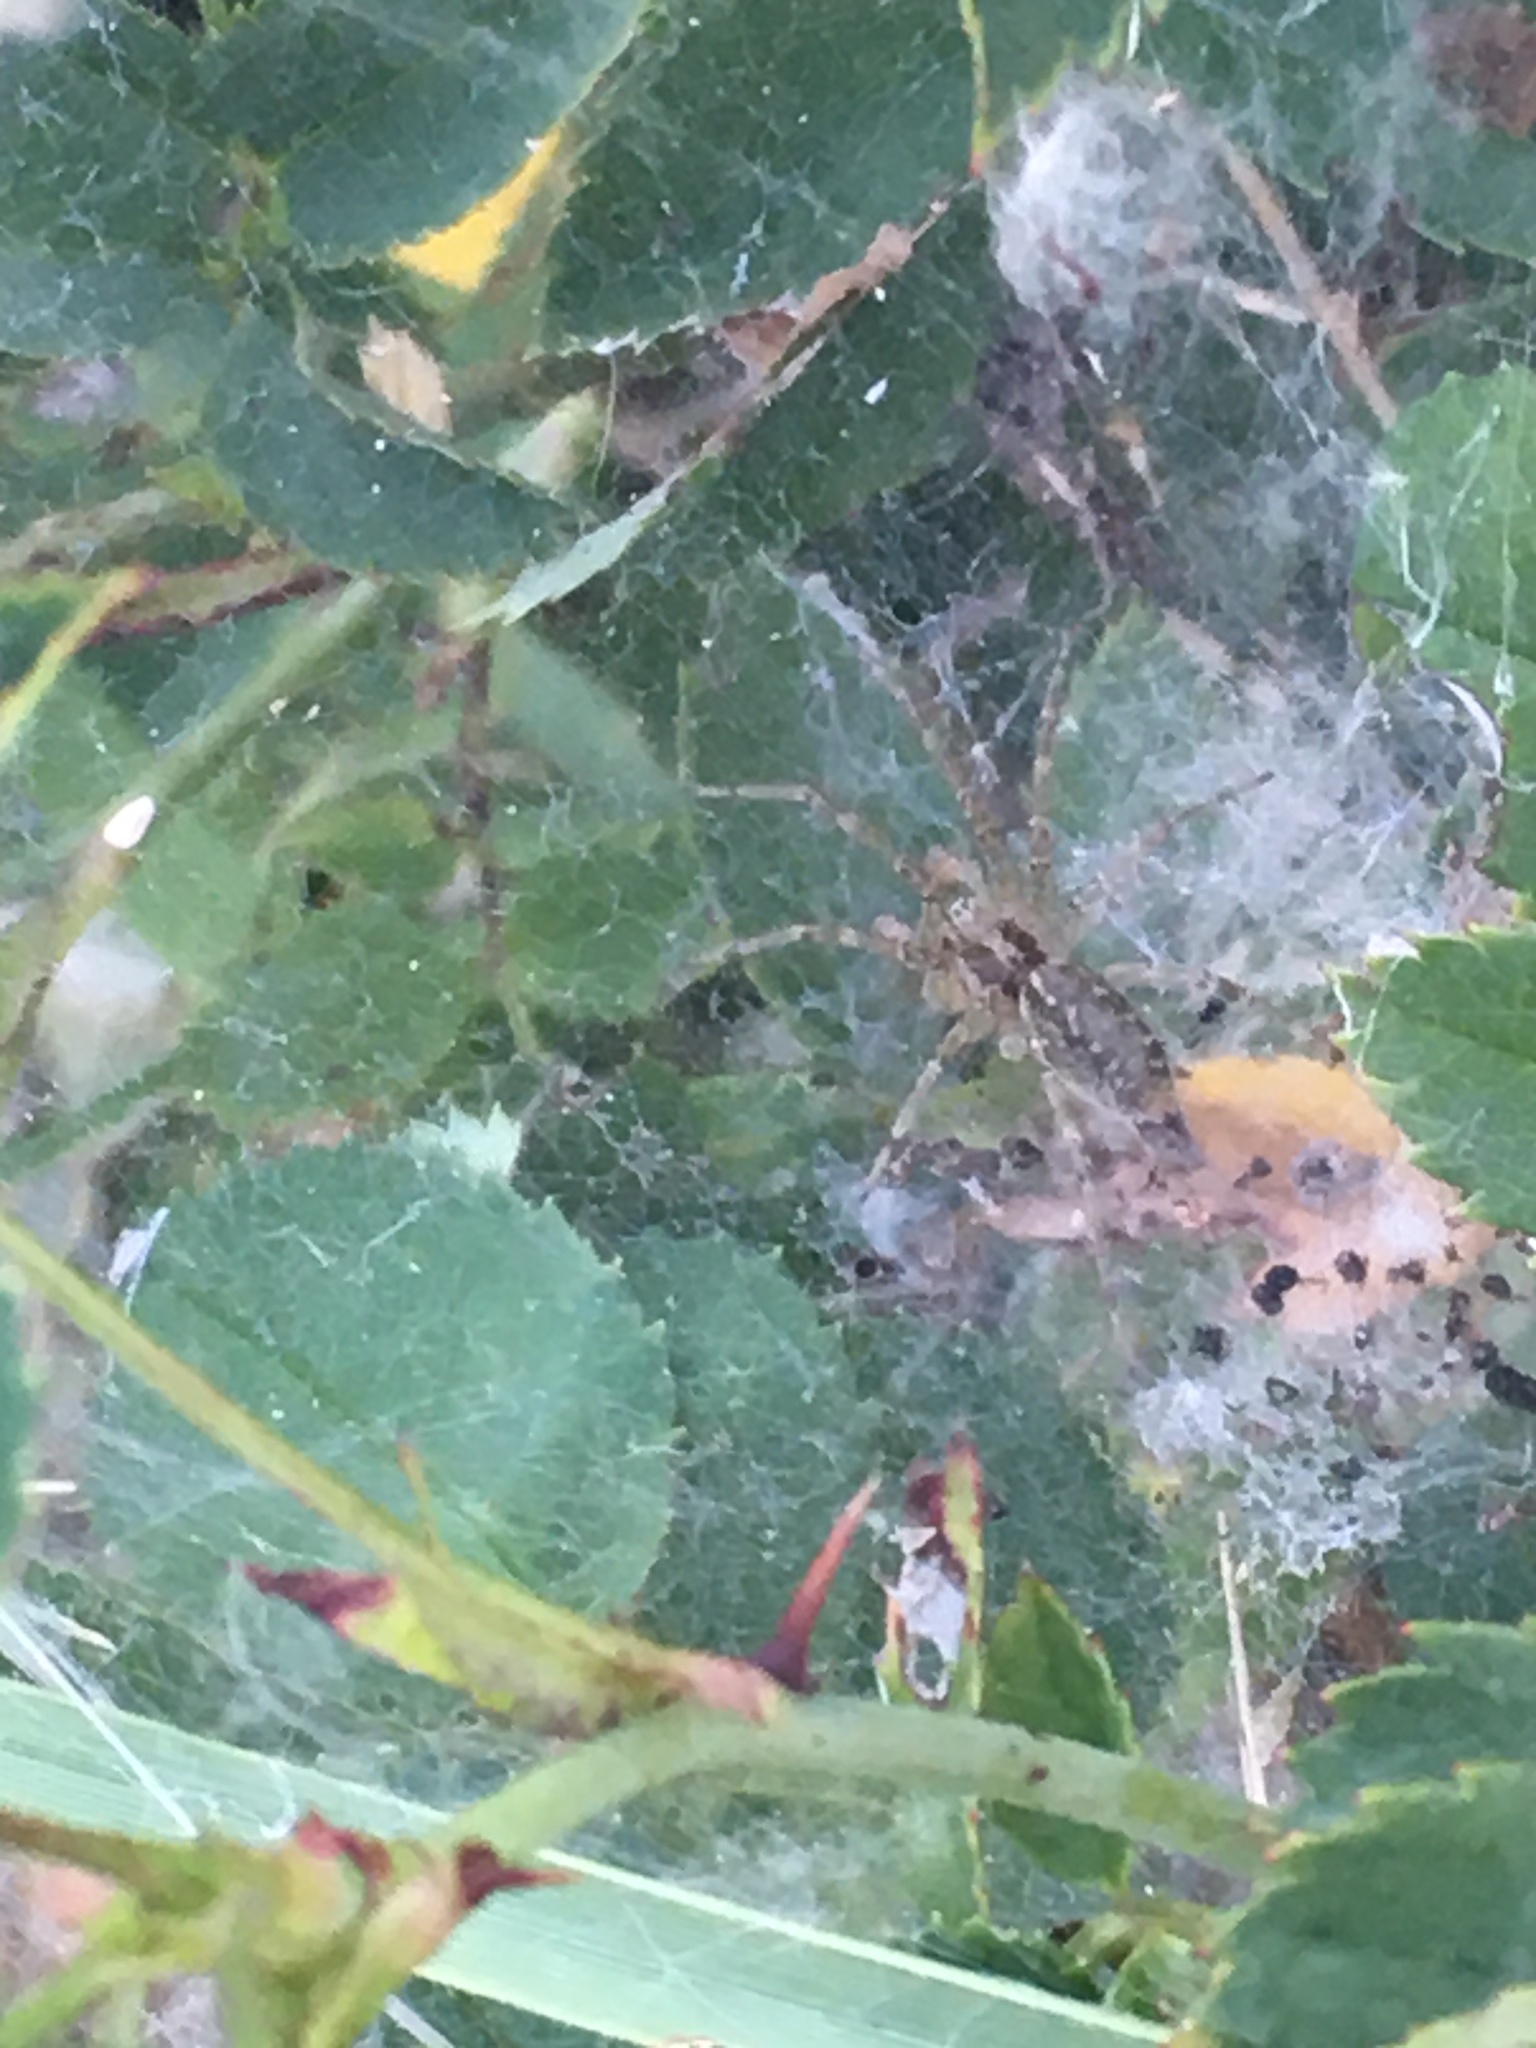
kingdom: Animalia
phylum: Arthropoda
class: Arachnida
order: Araneae
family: Agelenidae
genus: Allagelena
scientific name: Allagelena gracilens
